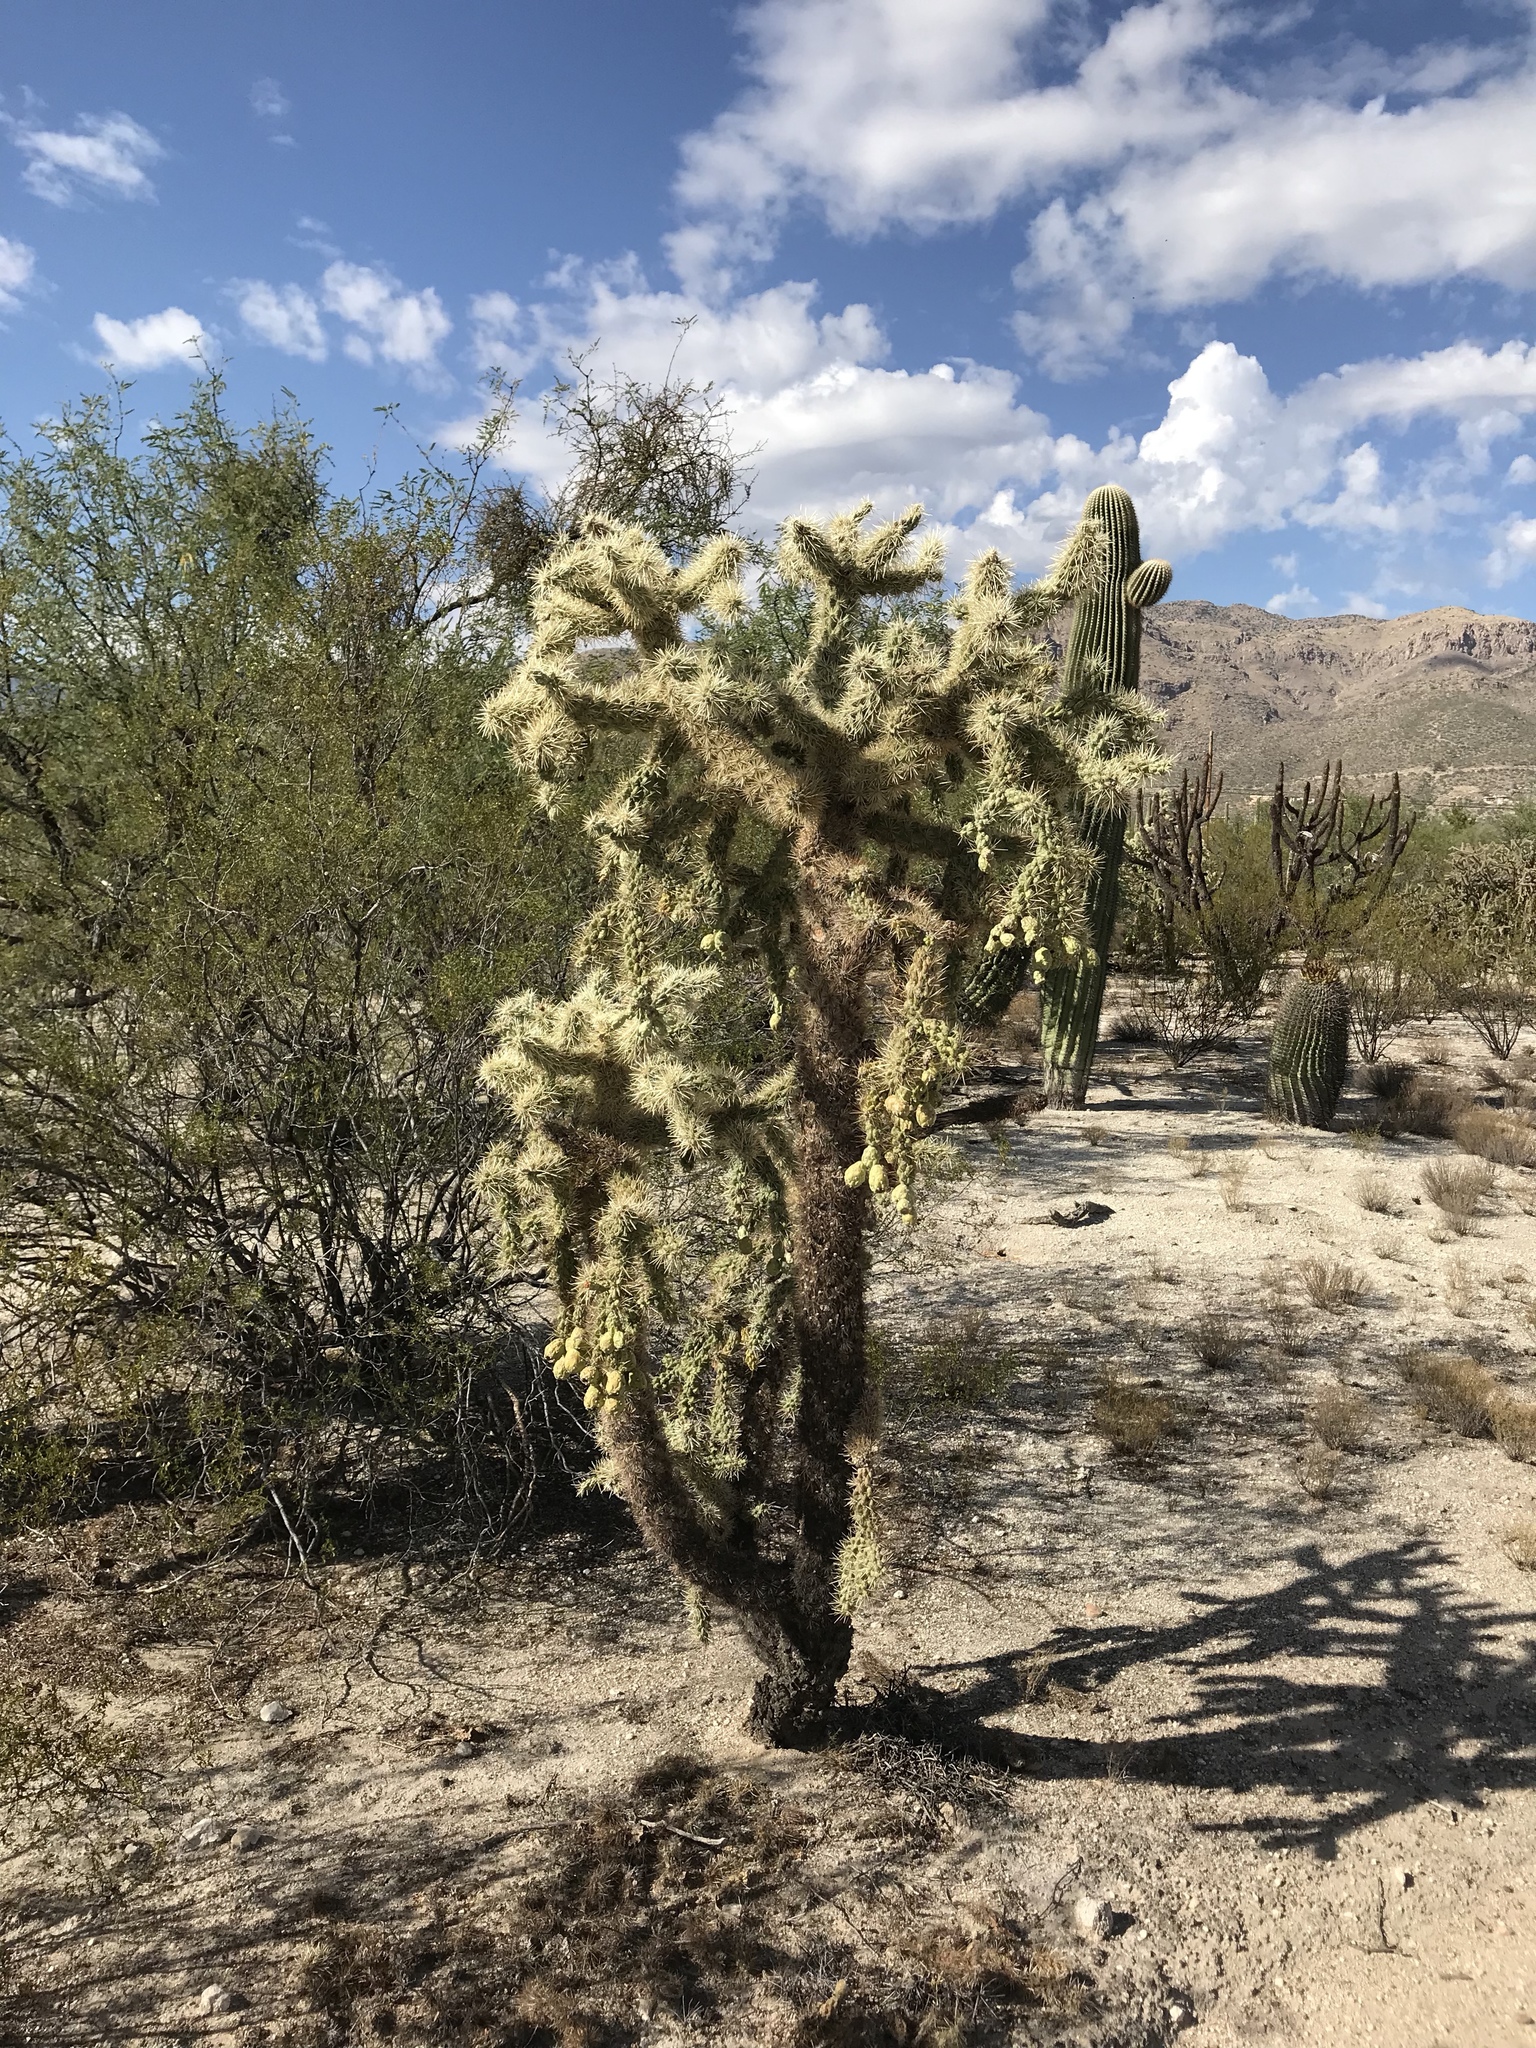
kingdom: Plantae
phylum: Tracheophyta
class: Magnoliopsida
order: Caryophyllales
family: Cactaceae
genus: Cylindropuntia
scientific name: Cylindropuntia fulgida
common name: Jumping cholla
